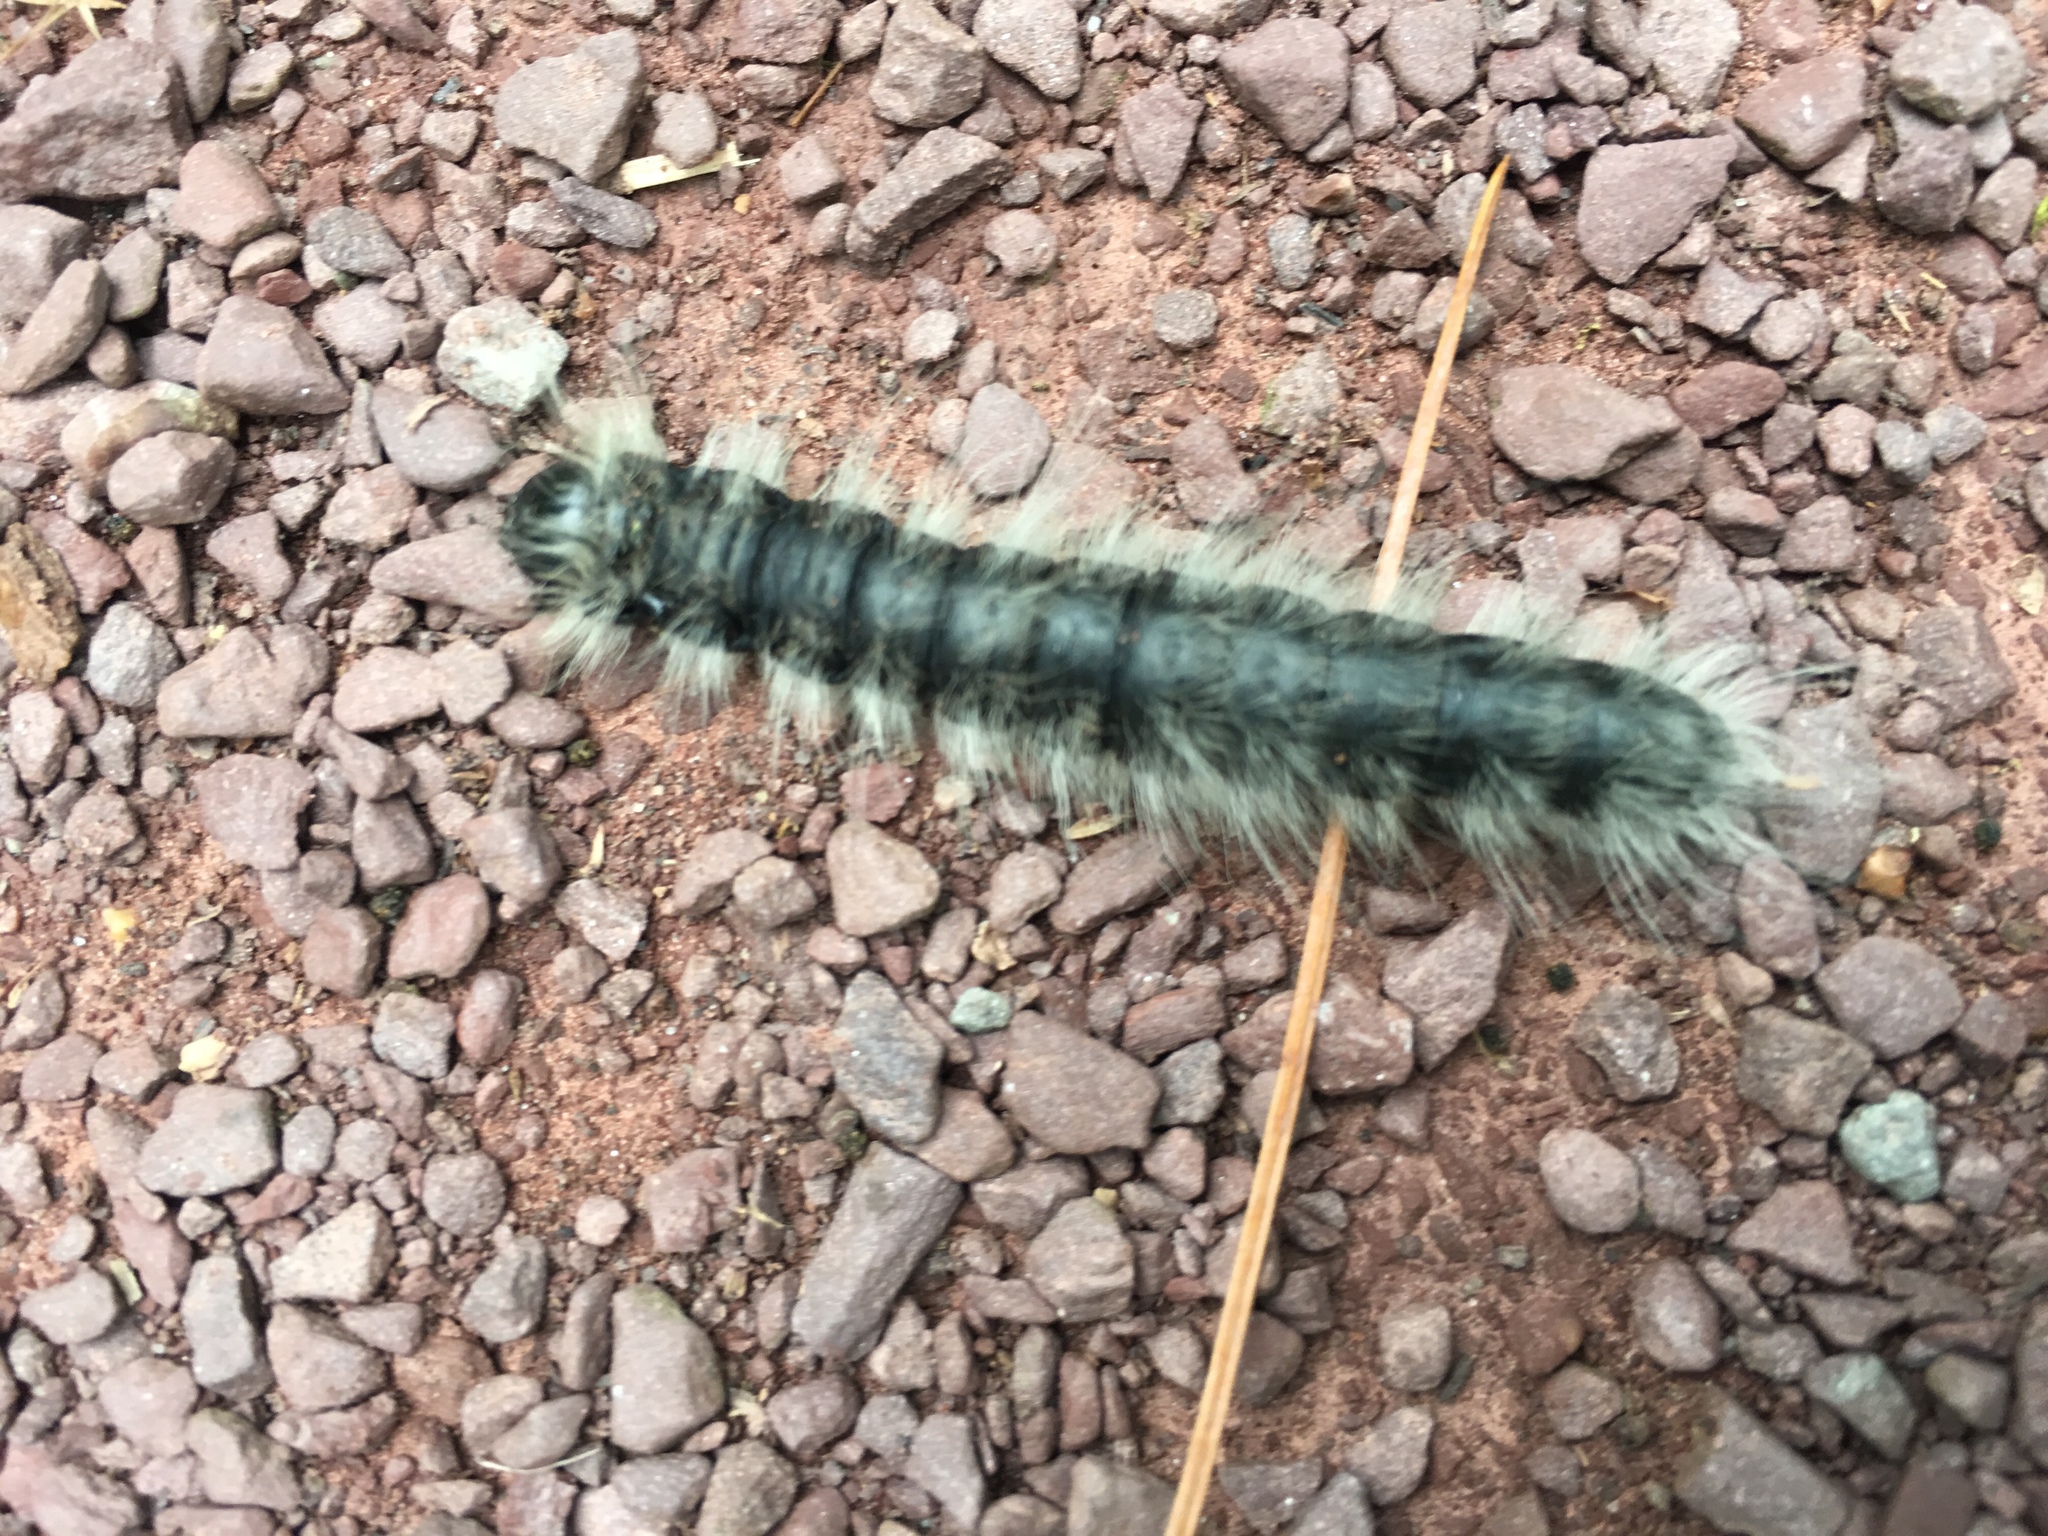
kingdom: Animalia
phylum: Arthropoda
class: Insecta
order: Lepidoptera
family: Notodontidae
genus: Datana
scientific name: Datana integerrima
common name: Walnut caterpillar
